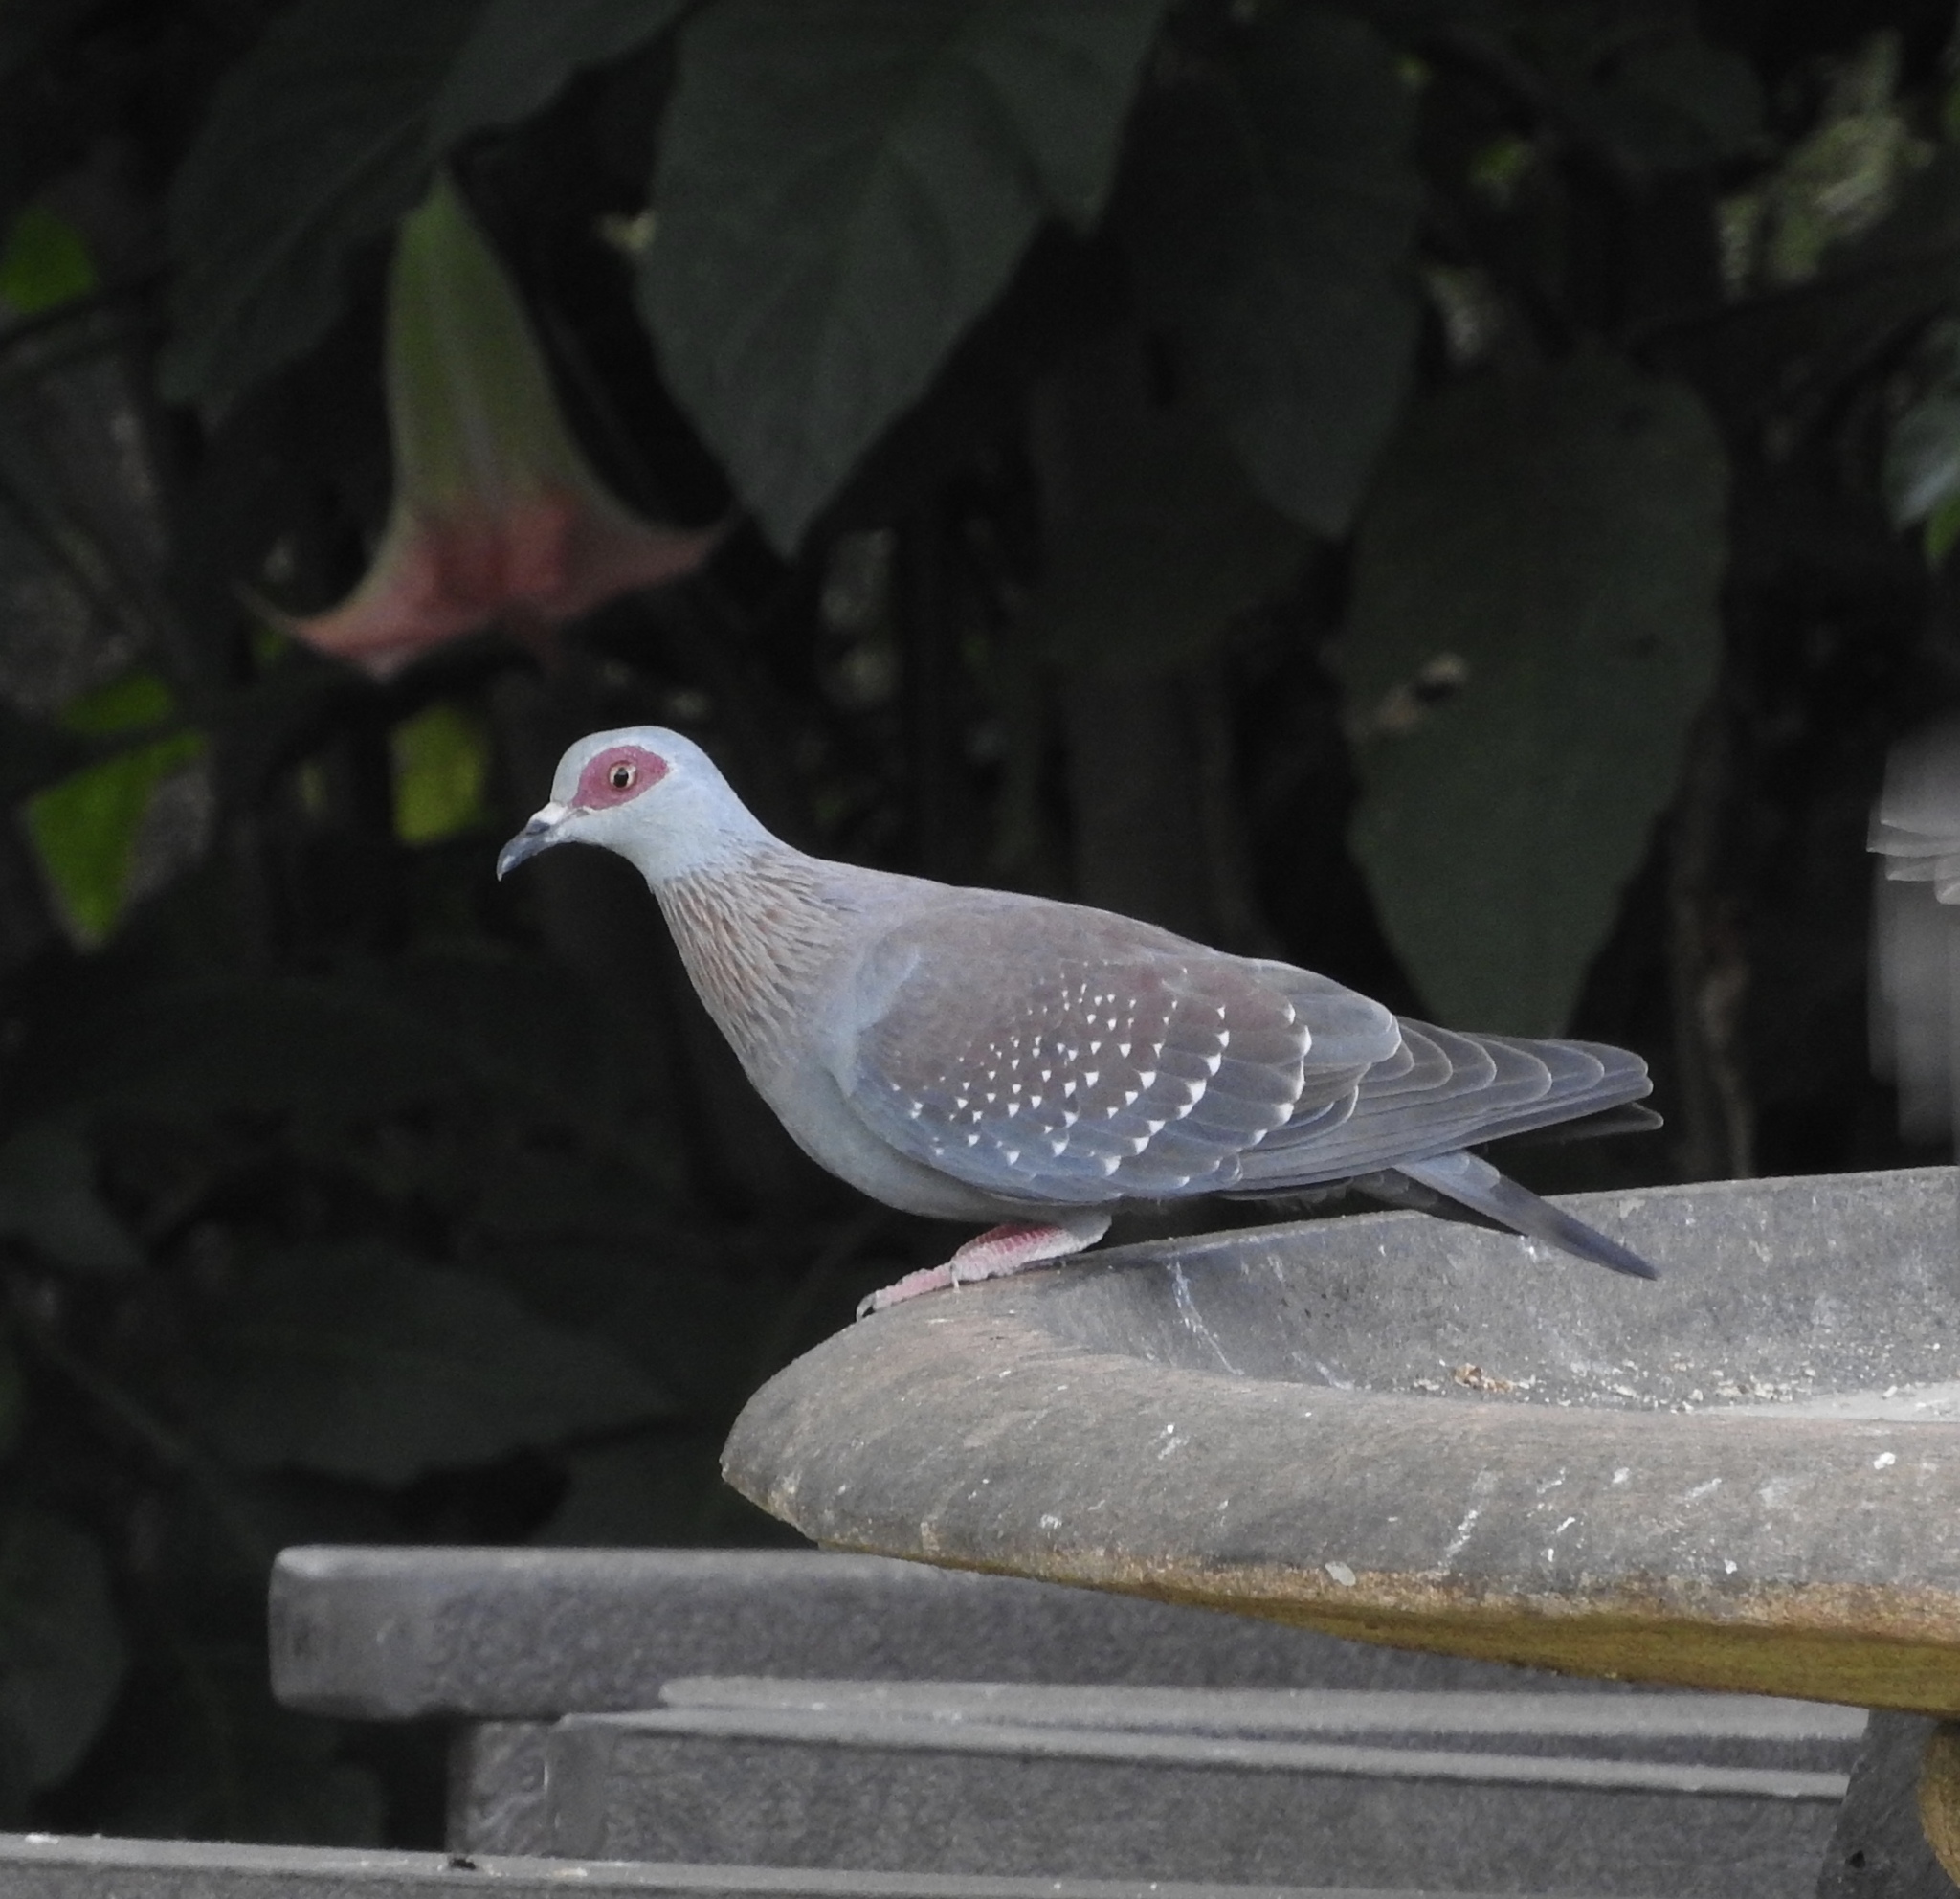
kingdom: Animalia
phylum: Chordata
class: Aves
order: Columbiformes
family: Columbidae
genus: Columba
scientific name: Columba guinea
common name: Speckled pigeon
